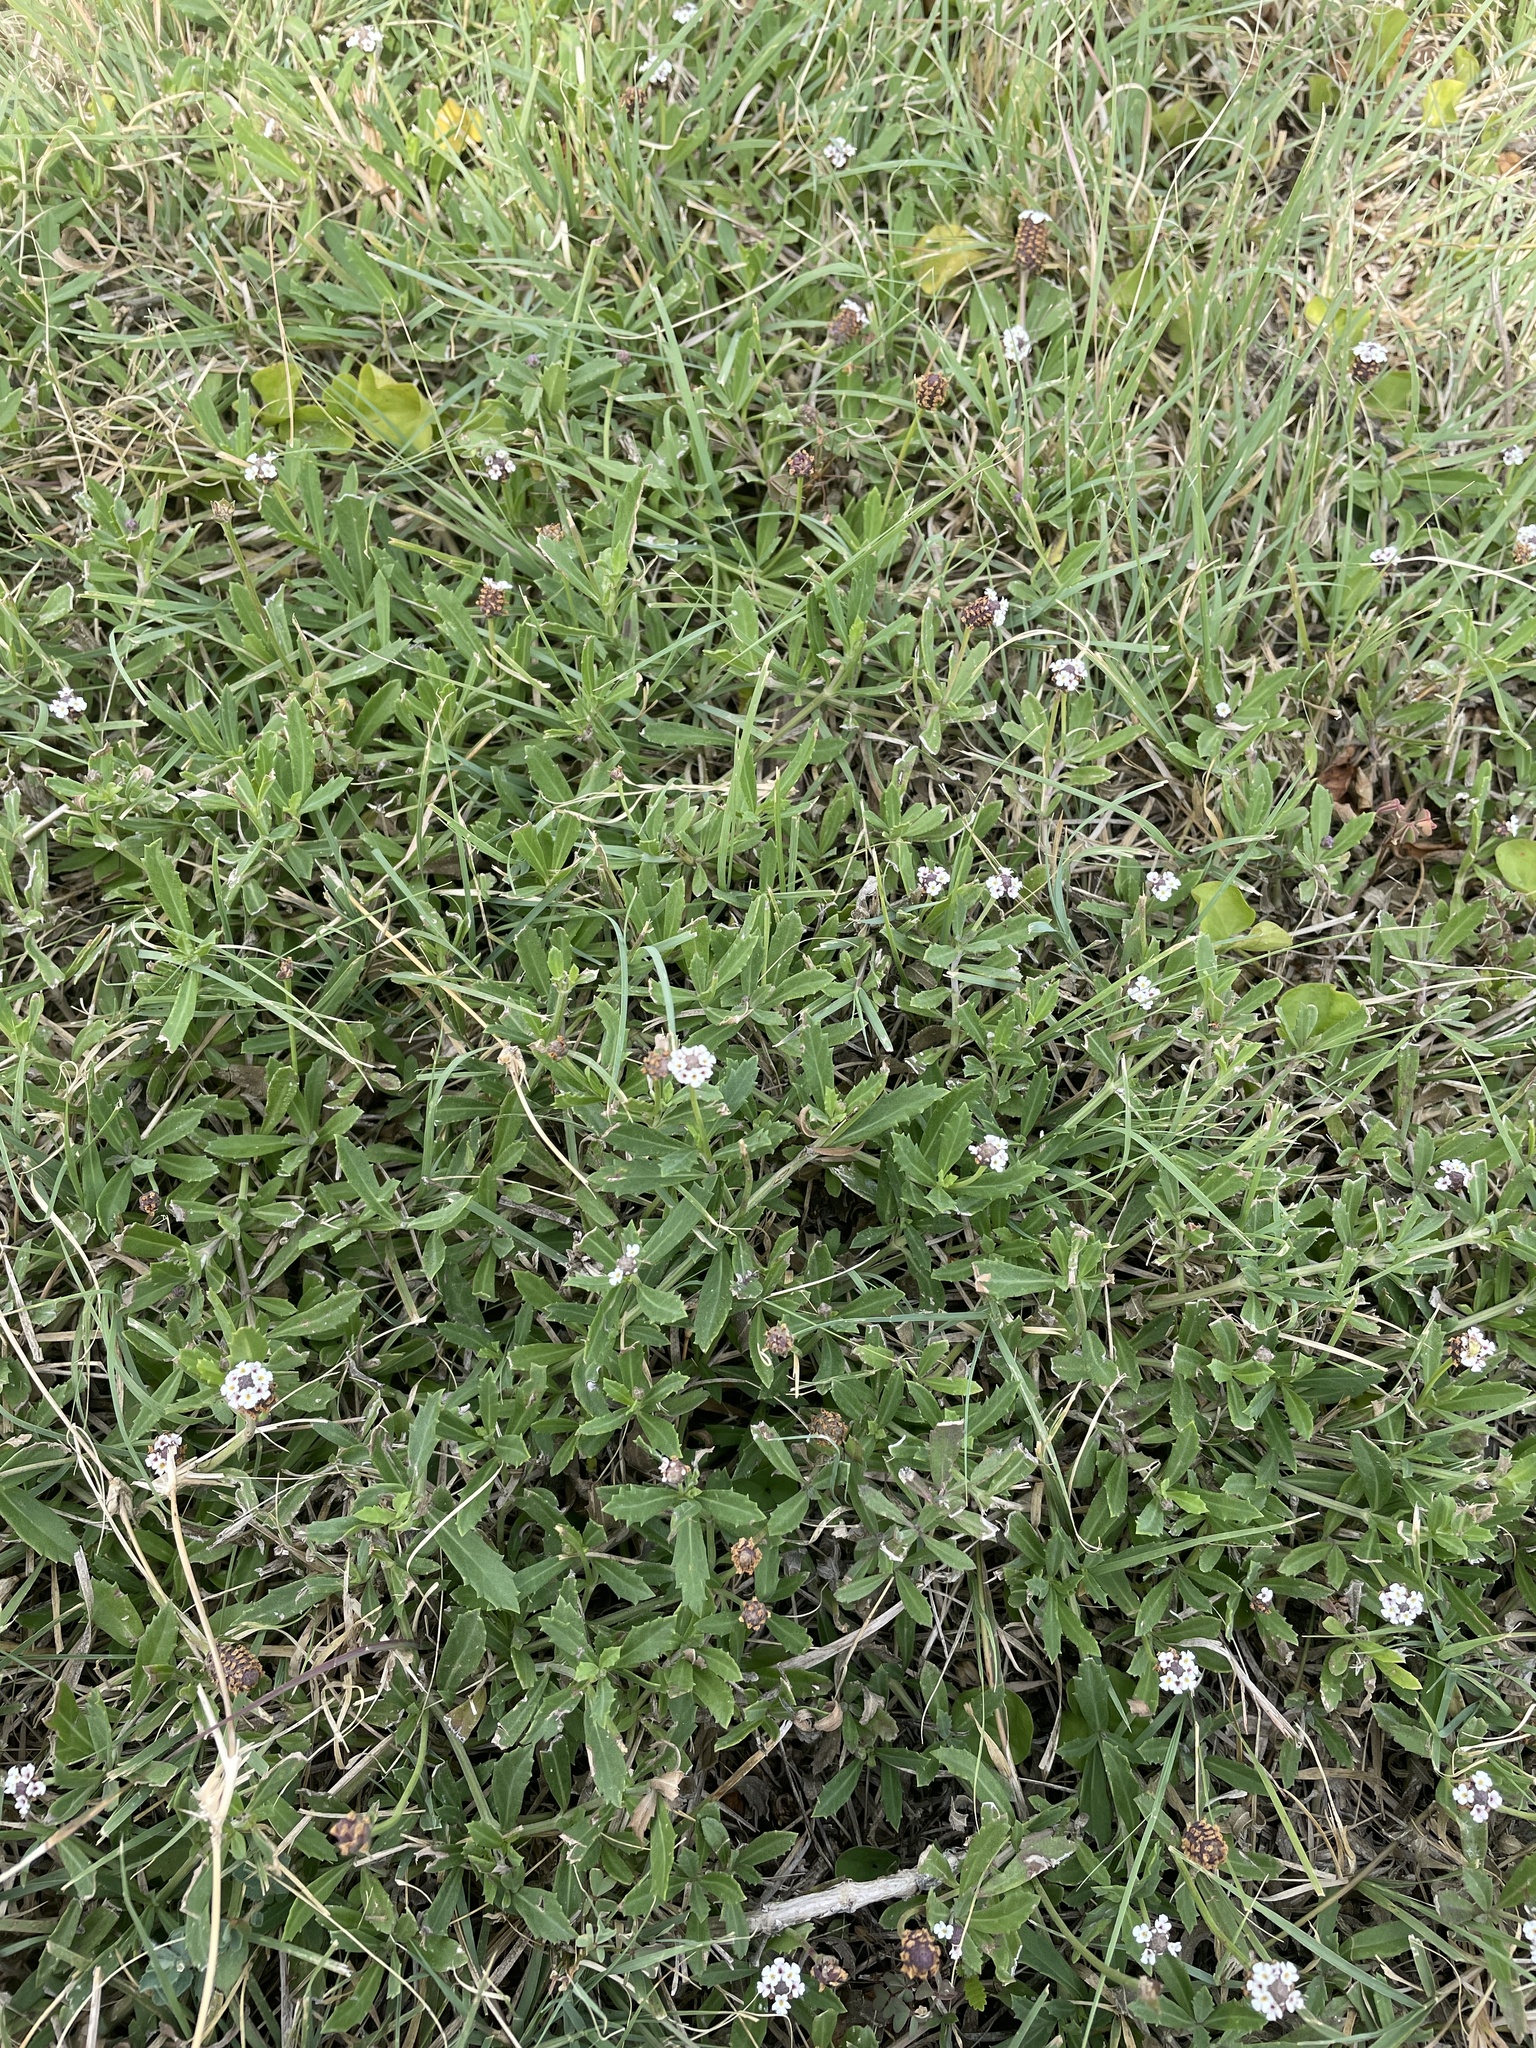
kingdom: Plantae
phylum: Tracheophyta
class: Magnoliopsida
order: Lamiales
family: Verbenaceae
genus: Phyla
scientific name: Phyla nodiflora
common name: Frogfruit
